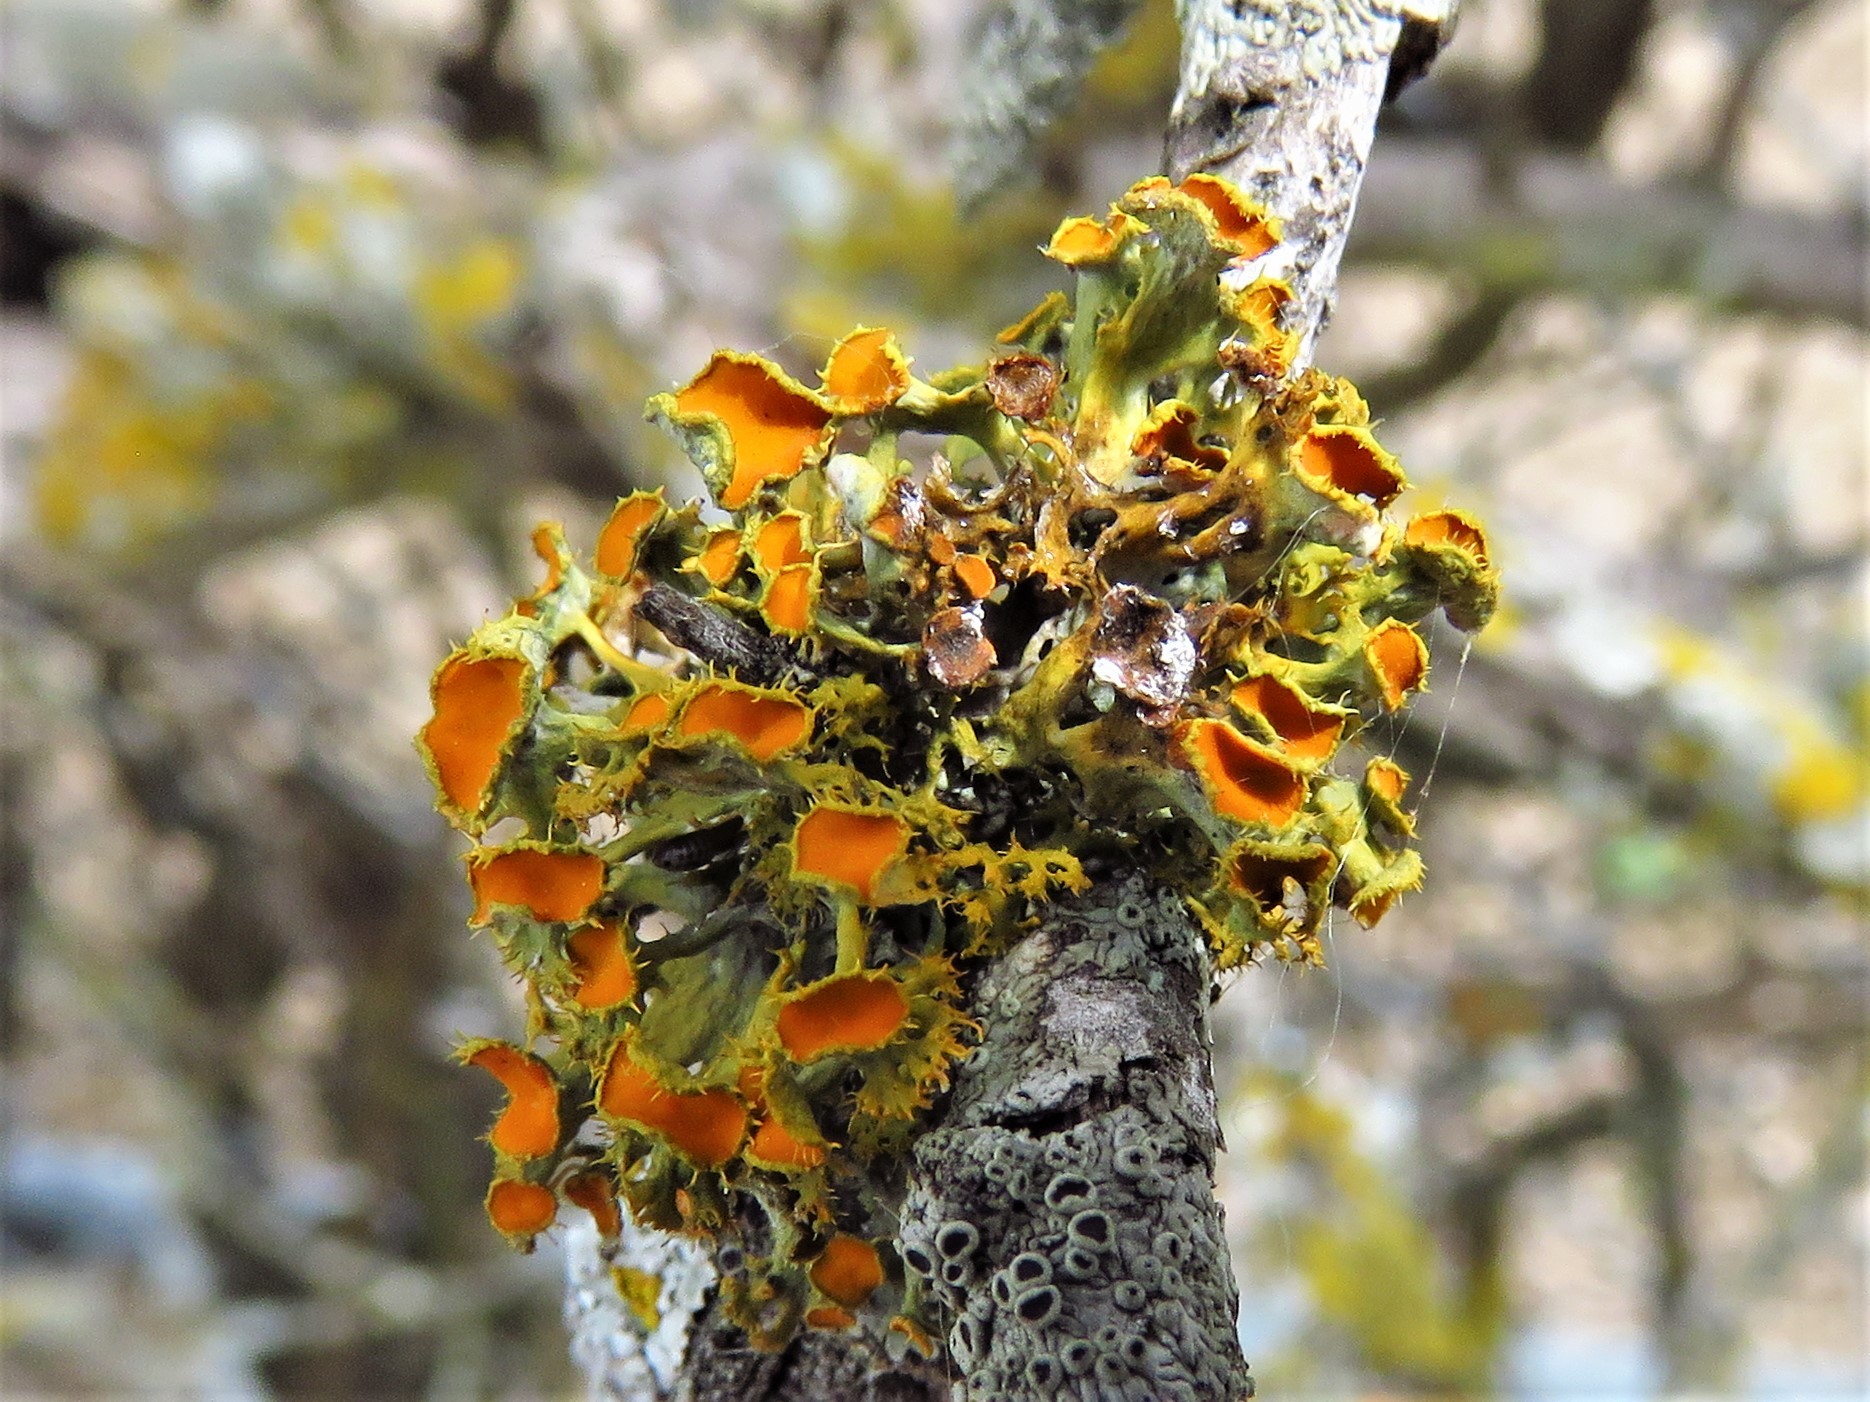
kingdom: Fungi
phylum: Ascomycota
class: Lecanoromycetes
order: Teloschistales
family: Teloschistaceae
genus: Niorma
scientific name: Niorma chrysophthalma
